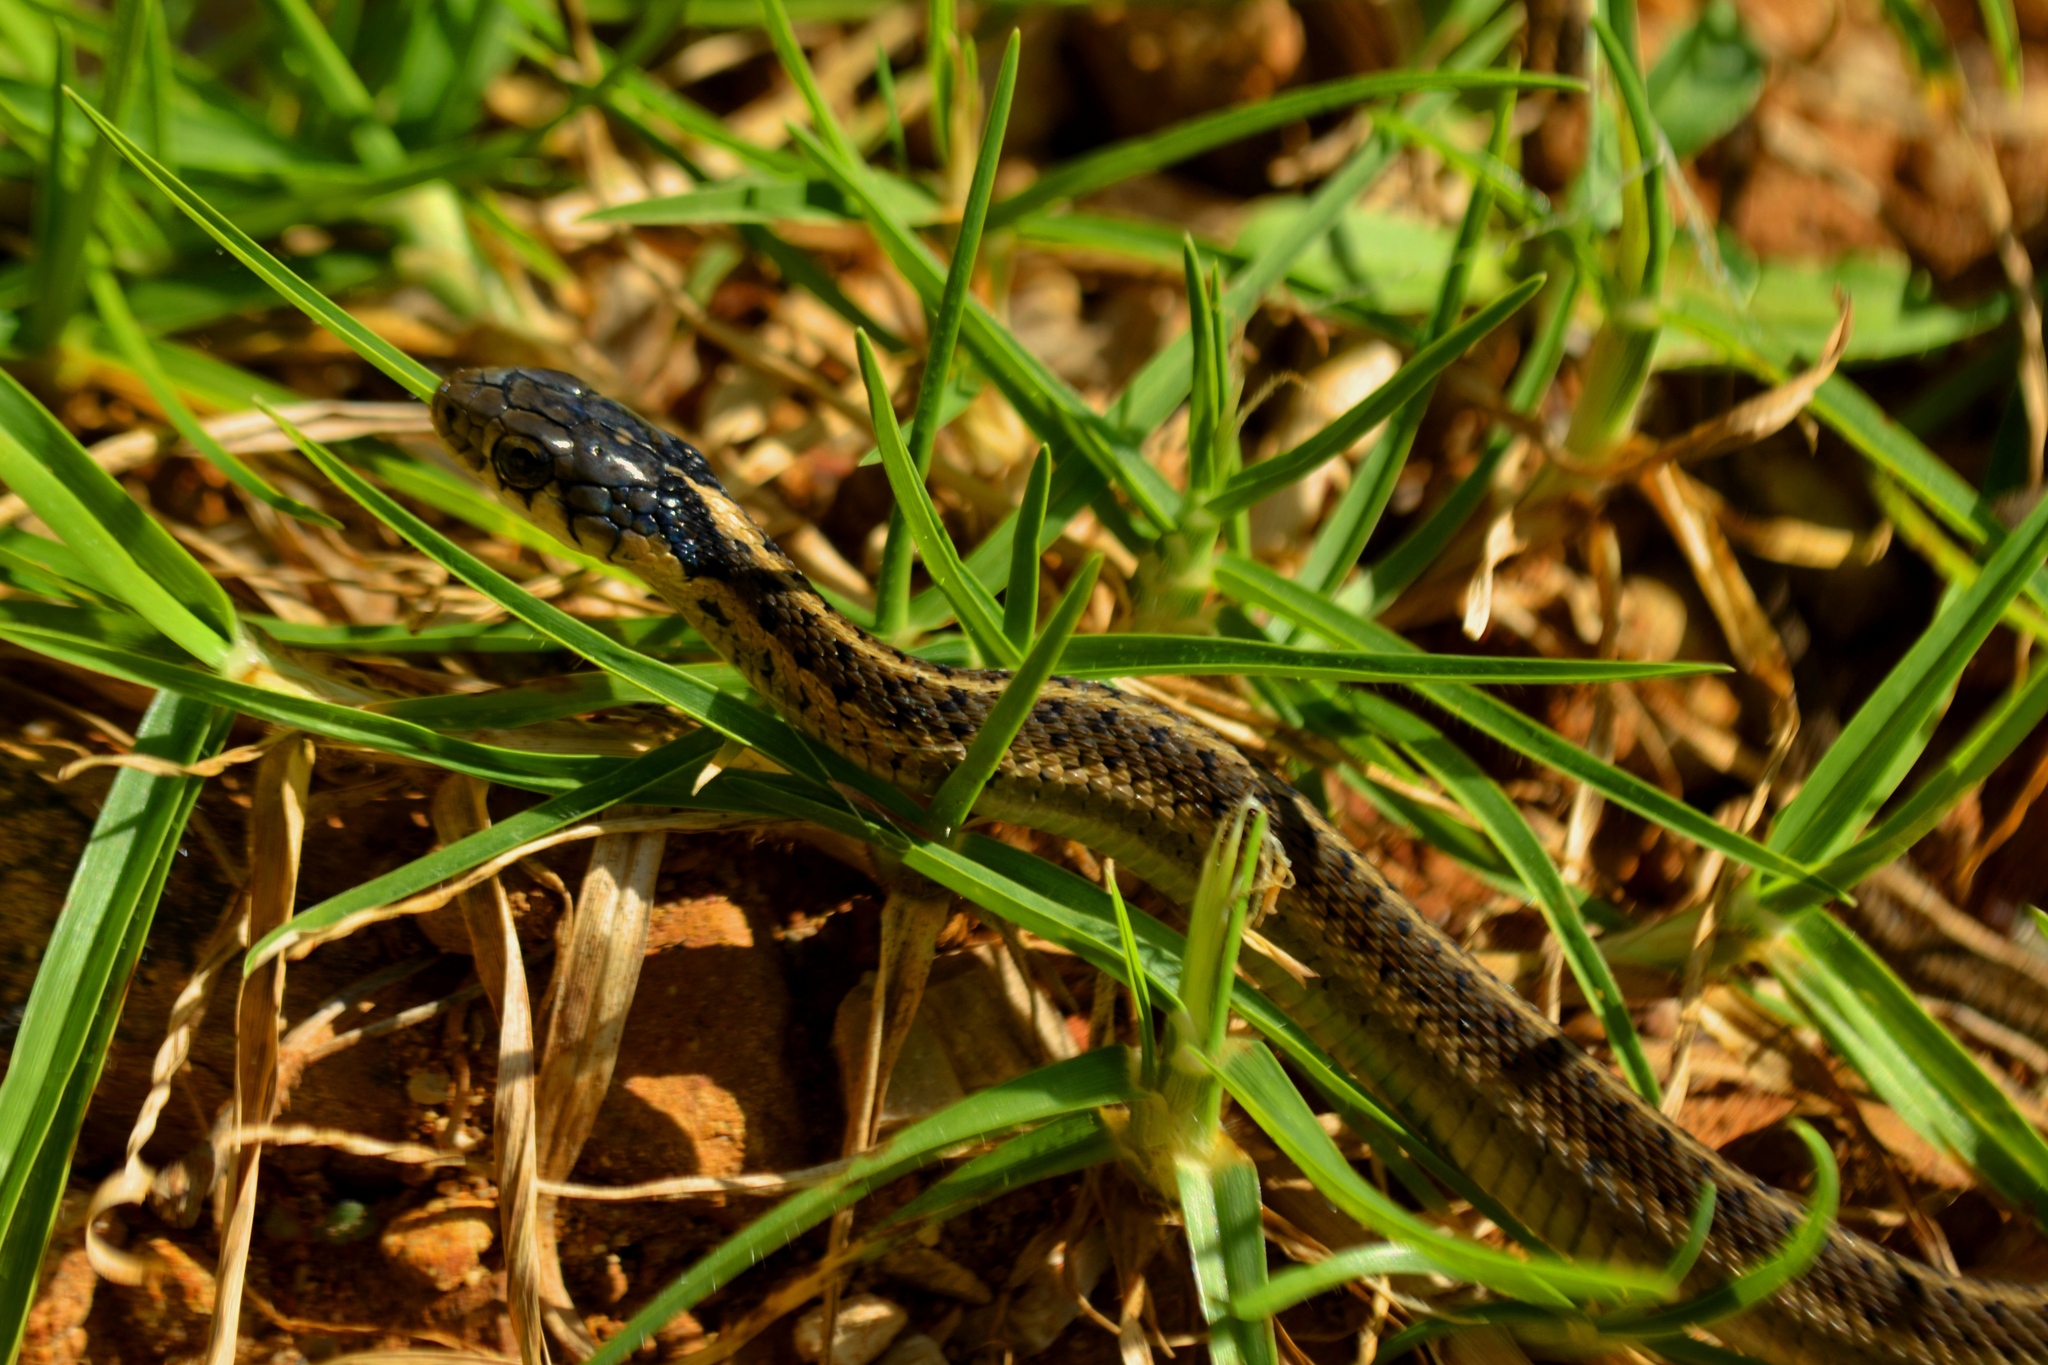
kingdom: Animalia
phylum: Chordata
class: Squamata
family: Colubridae
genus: Thamnophis
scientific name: Thamnophis fulvus
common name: Highland garter snake
